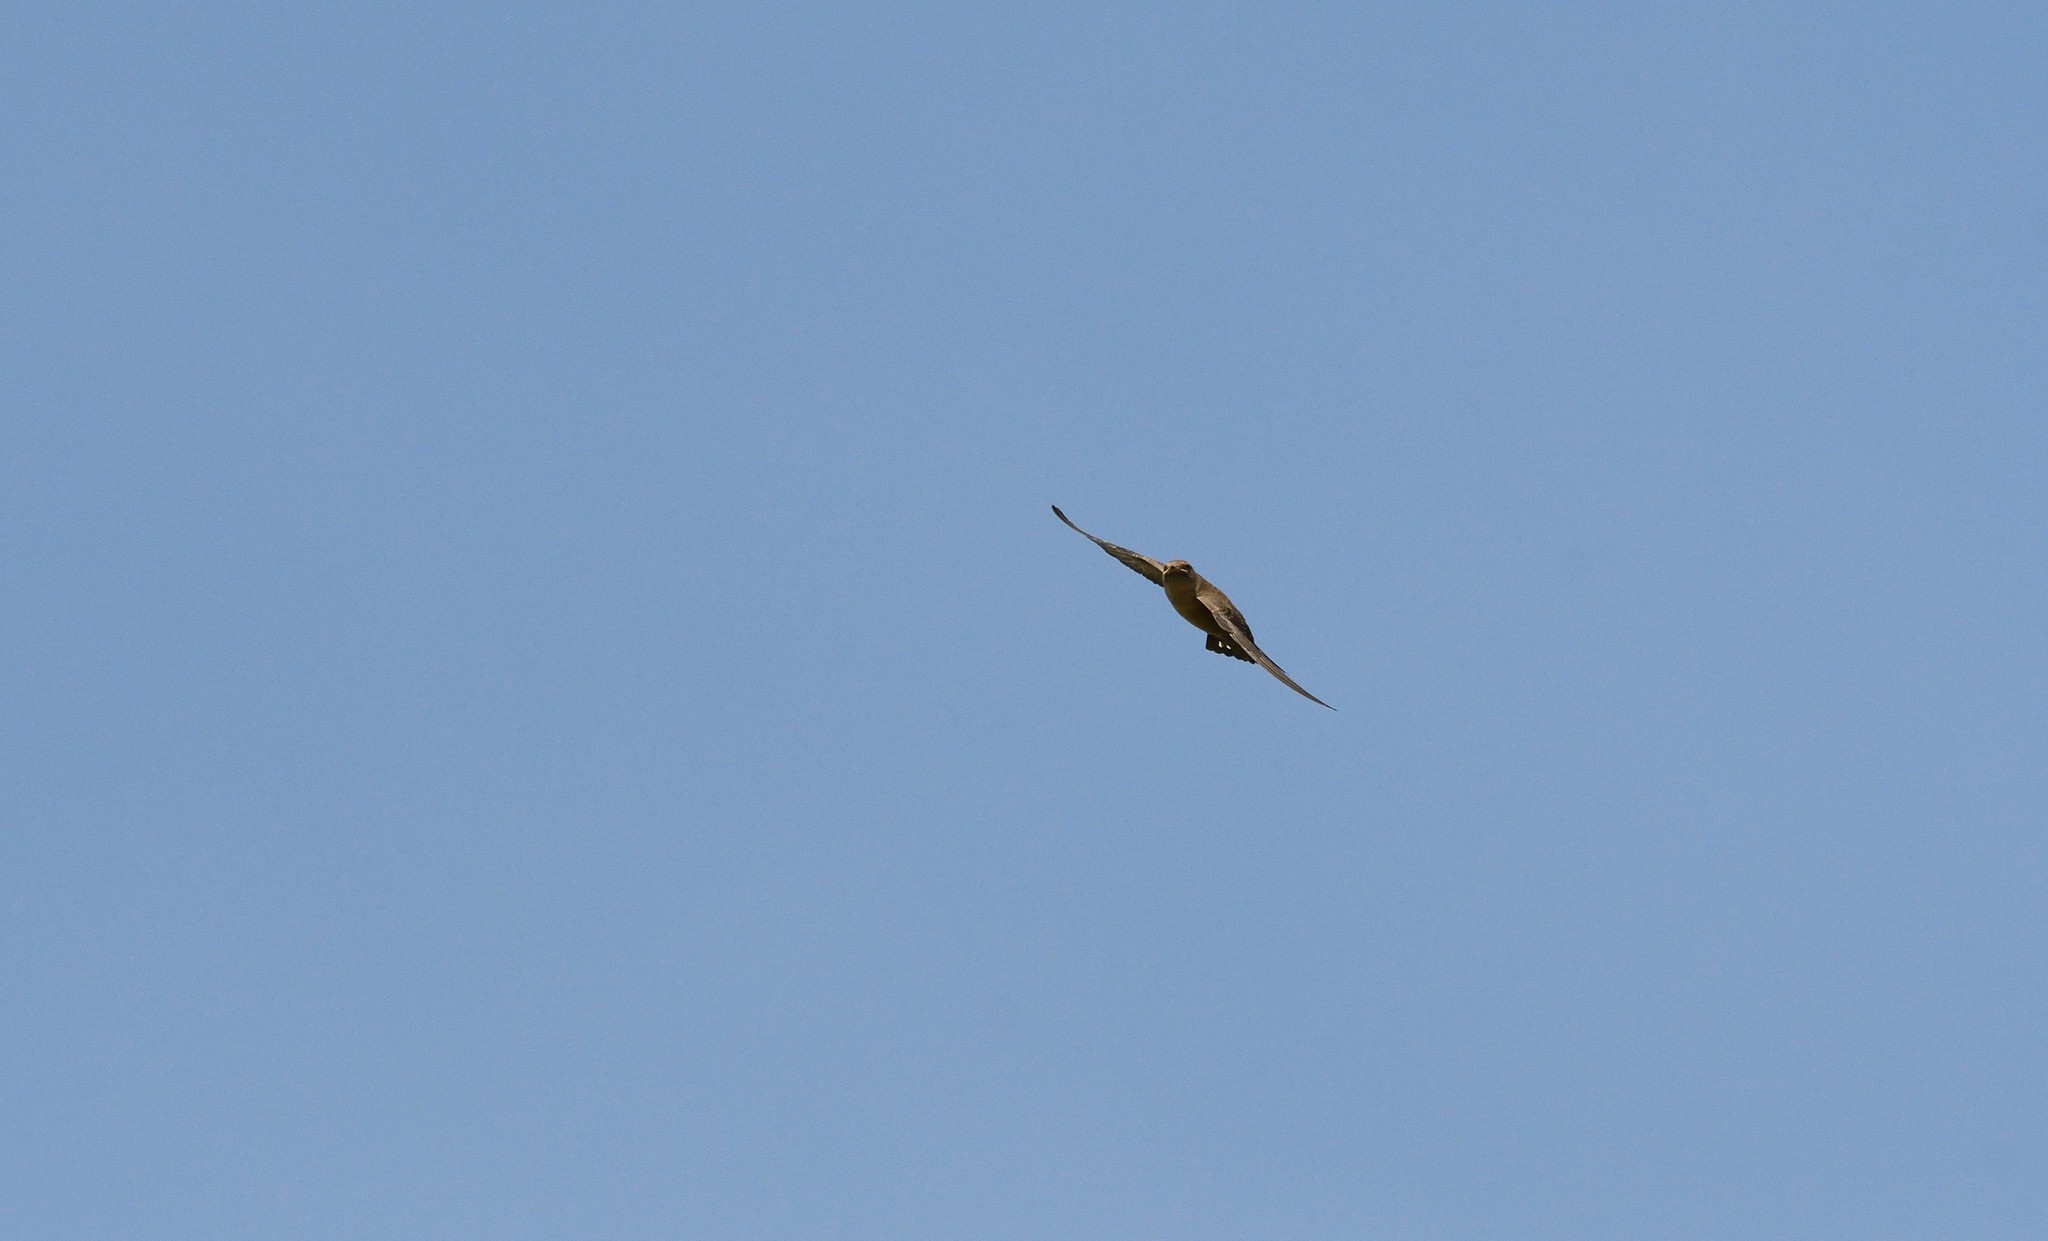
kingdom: Animalia
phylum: Chordata
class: Aves
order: Passeriformes
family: Hirundinidae
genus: Ptyonoprogne
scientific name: Ptyonoprogne rupestris
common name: Eurasian crag martin
